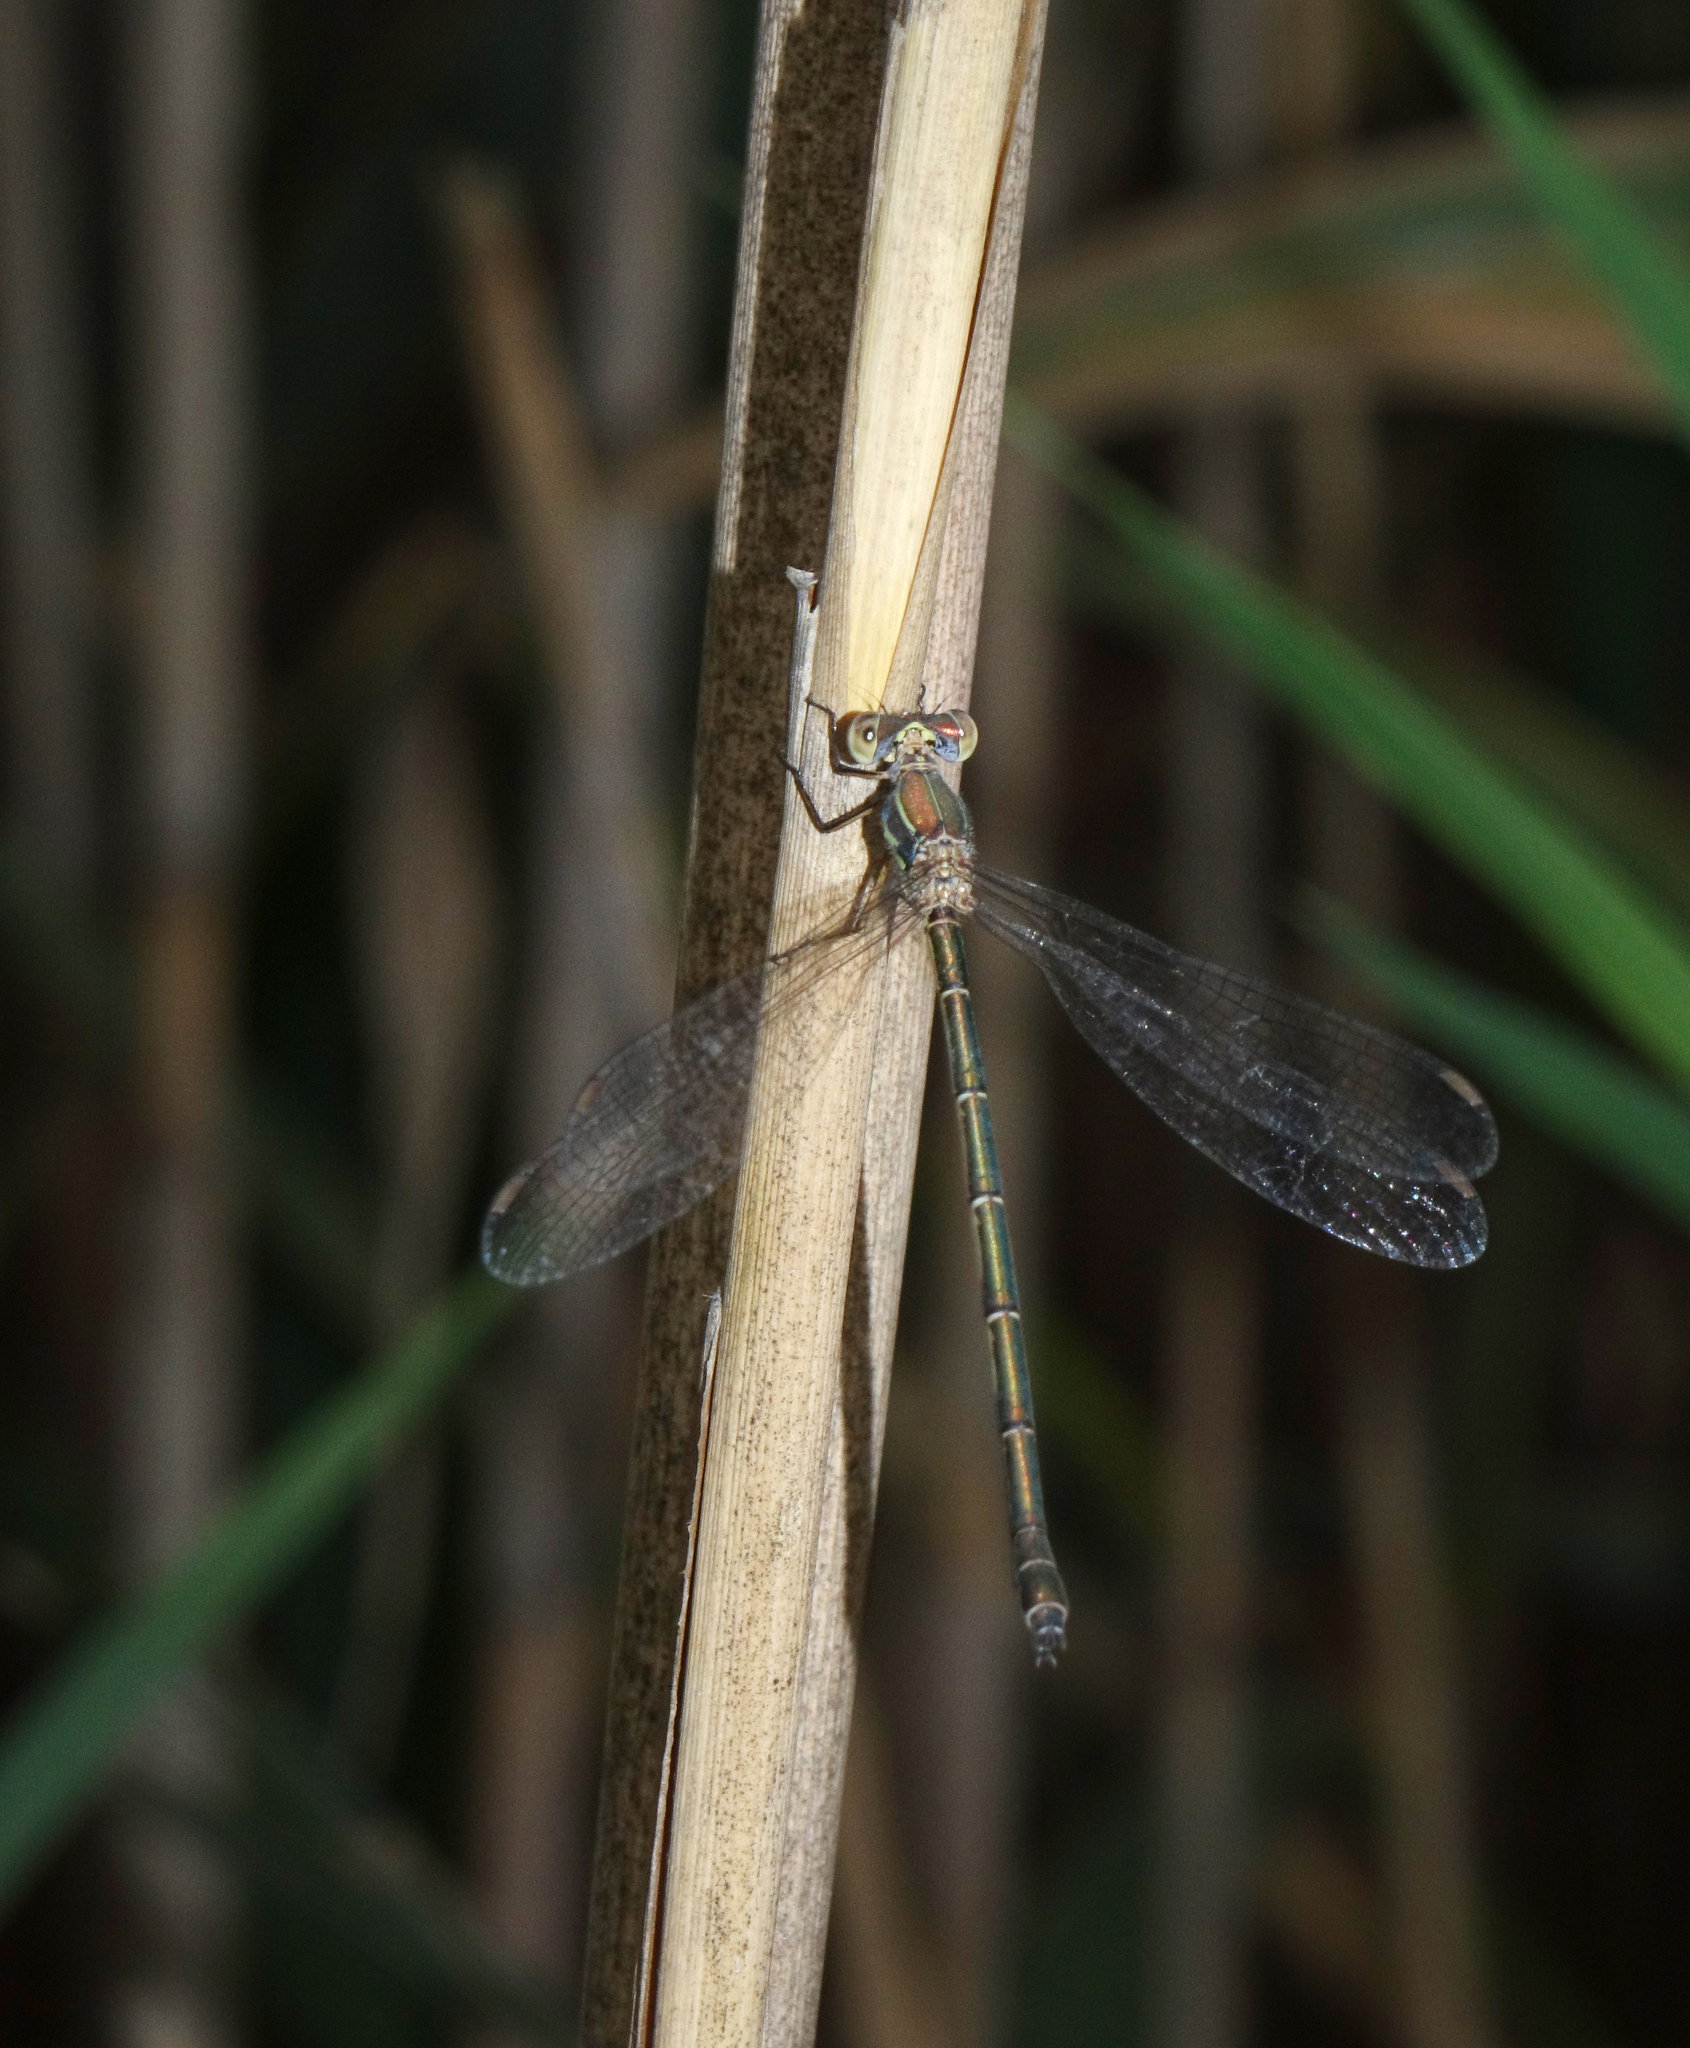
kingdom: Animalia
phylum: Arthropoda
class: Insecta
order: Odonata
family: Lestidae
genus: Chalcolestes
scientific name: Chalcolestes parvidens
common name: Eastern willow spreadwing
